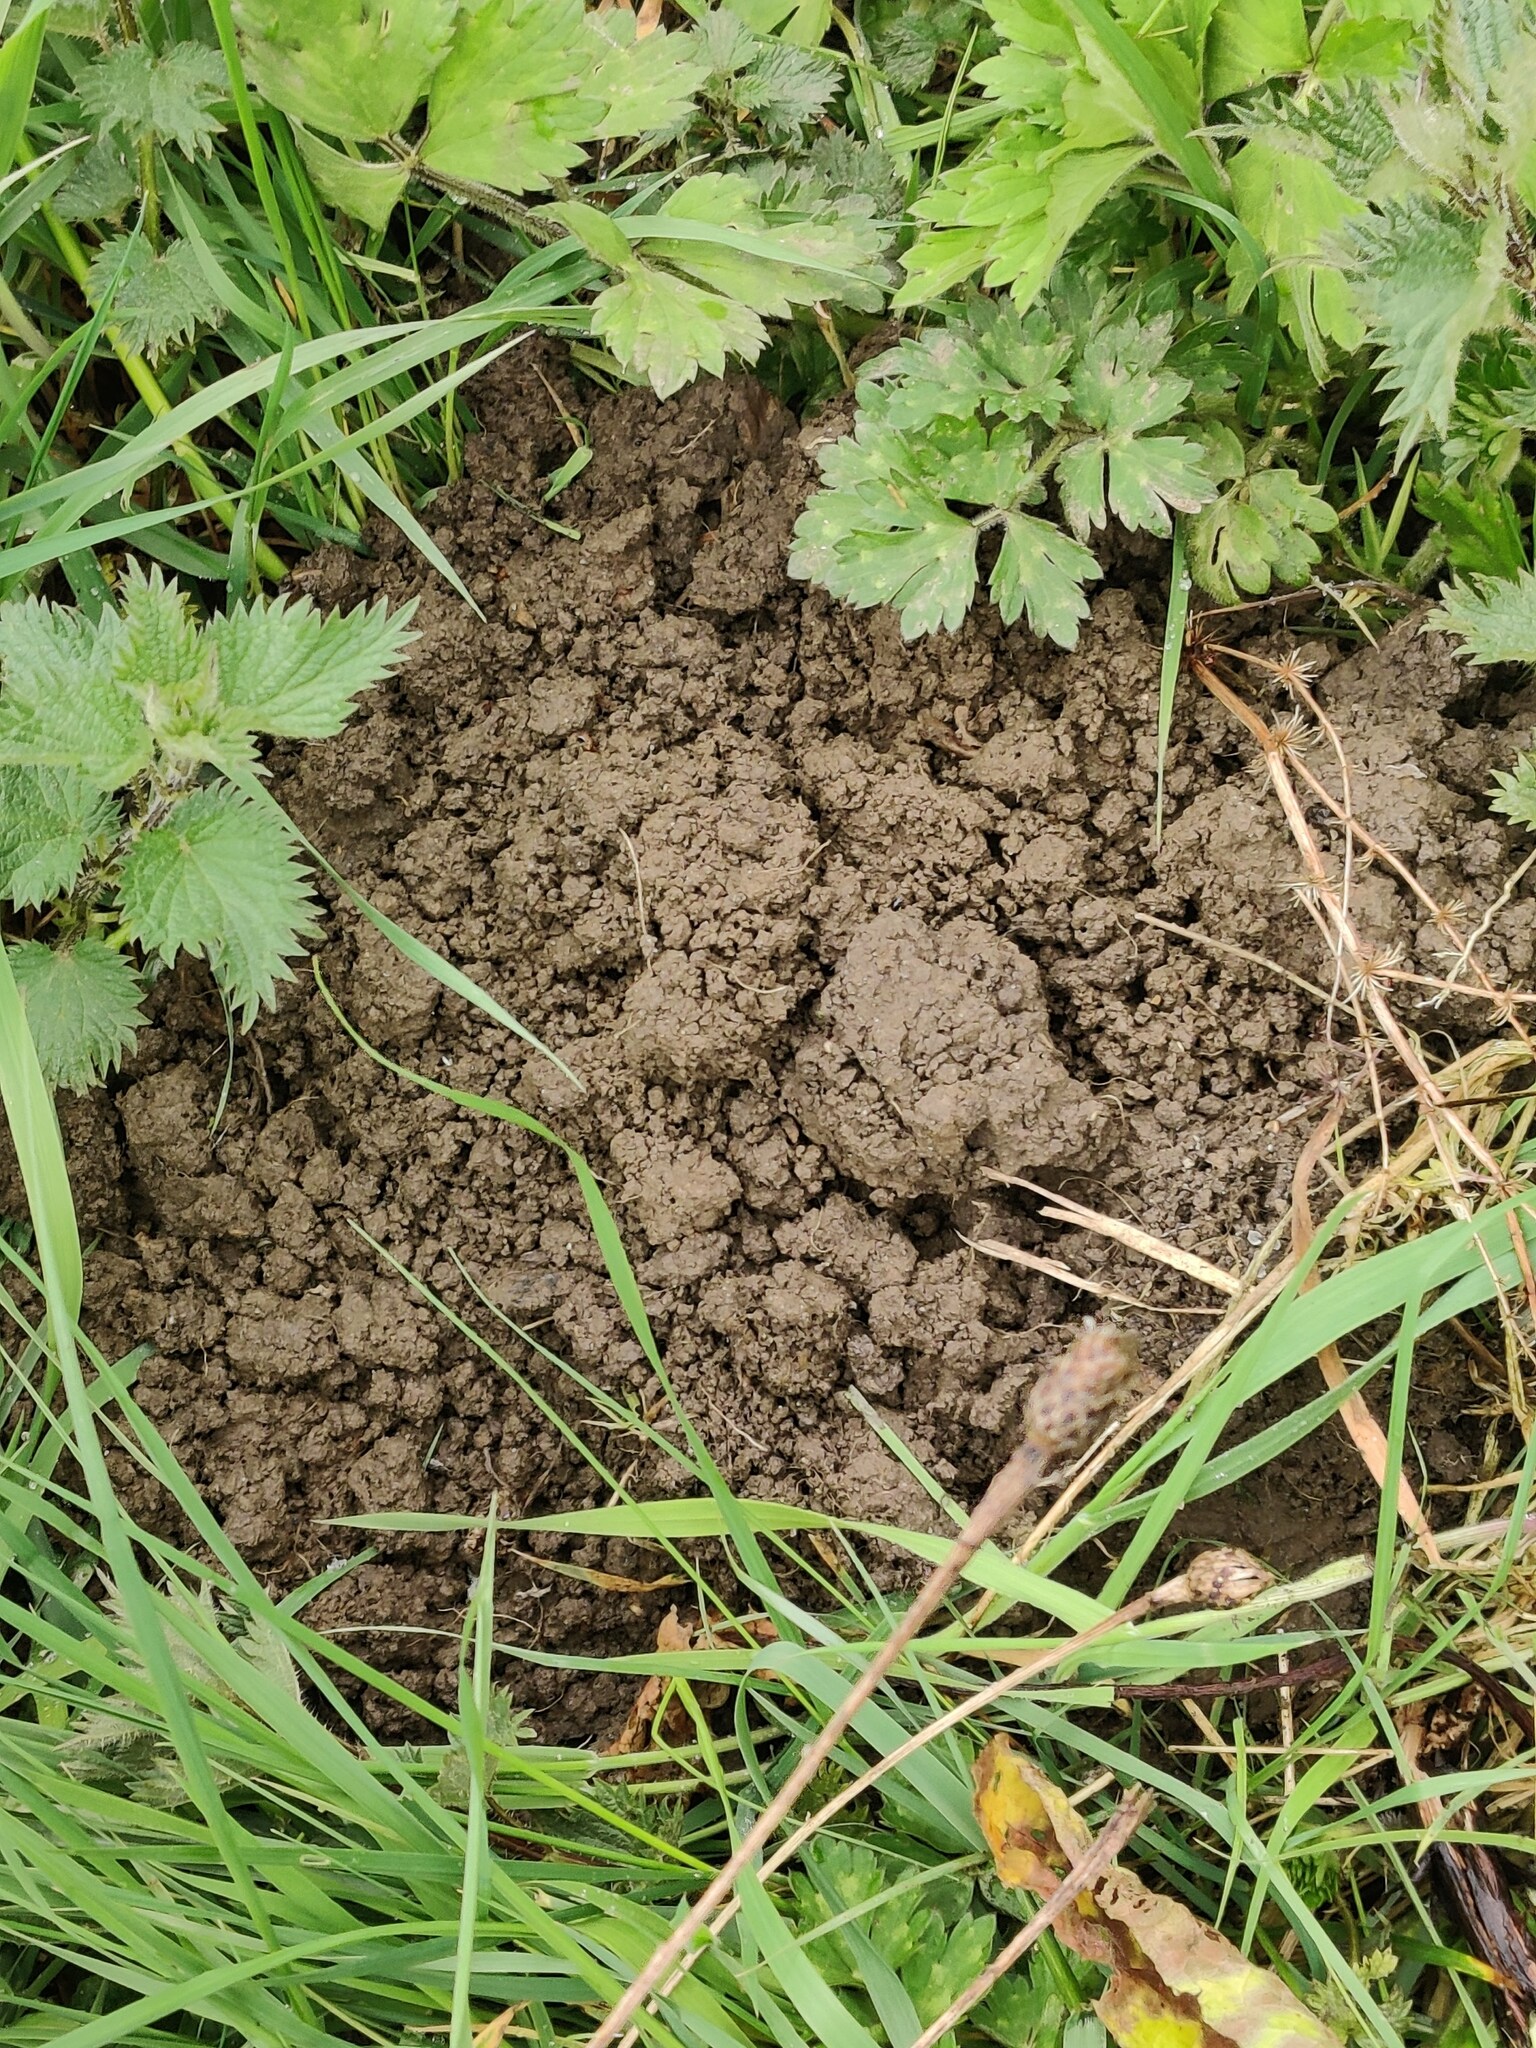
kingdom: Animalia
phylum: Chordata
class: Mammalia
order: Soricomorpha
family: Talpidae
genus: Talpa
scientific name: Talpa europaea
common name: European mole
